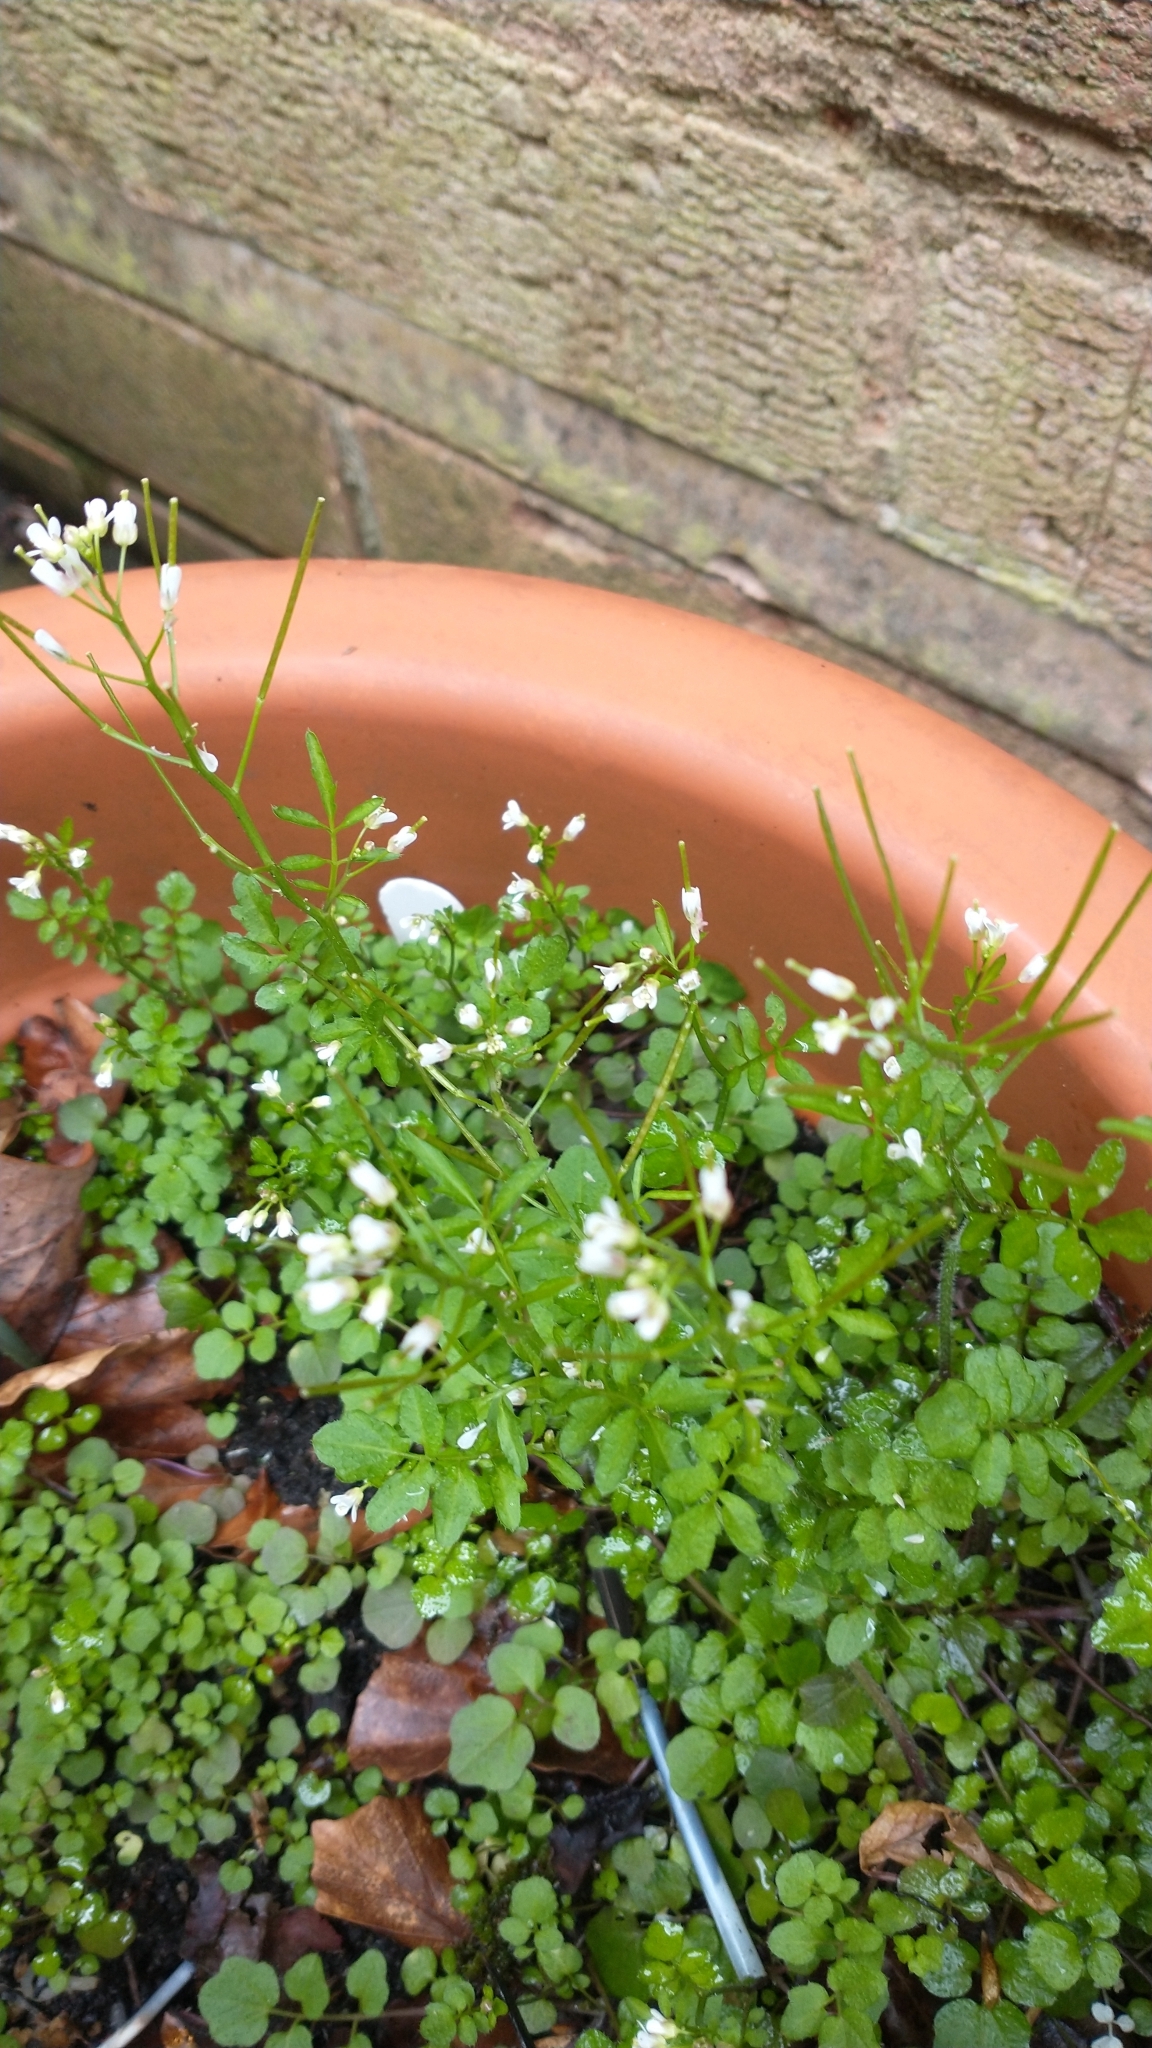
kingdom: Plantae
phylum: Tracheophyta
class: Magnoliopsida
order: Brassicales
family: Brassicaceae
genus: Cardamine
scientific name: Cardamine flexuosa
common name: Woodland bittercress
